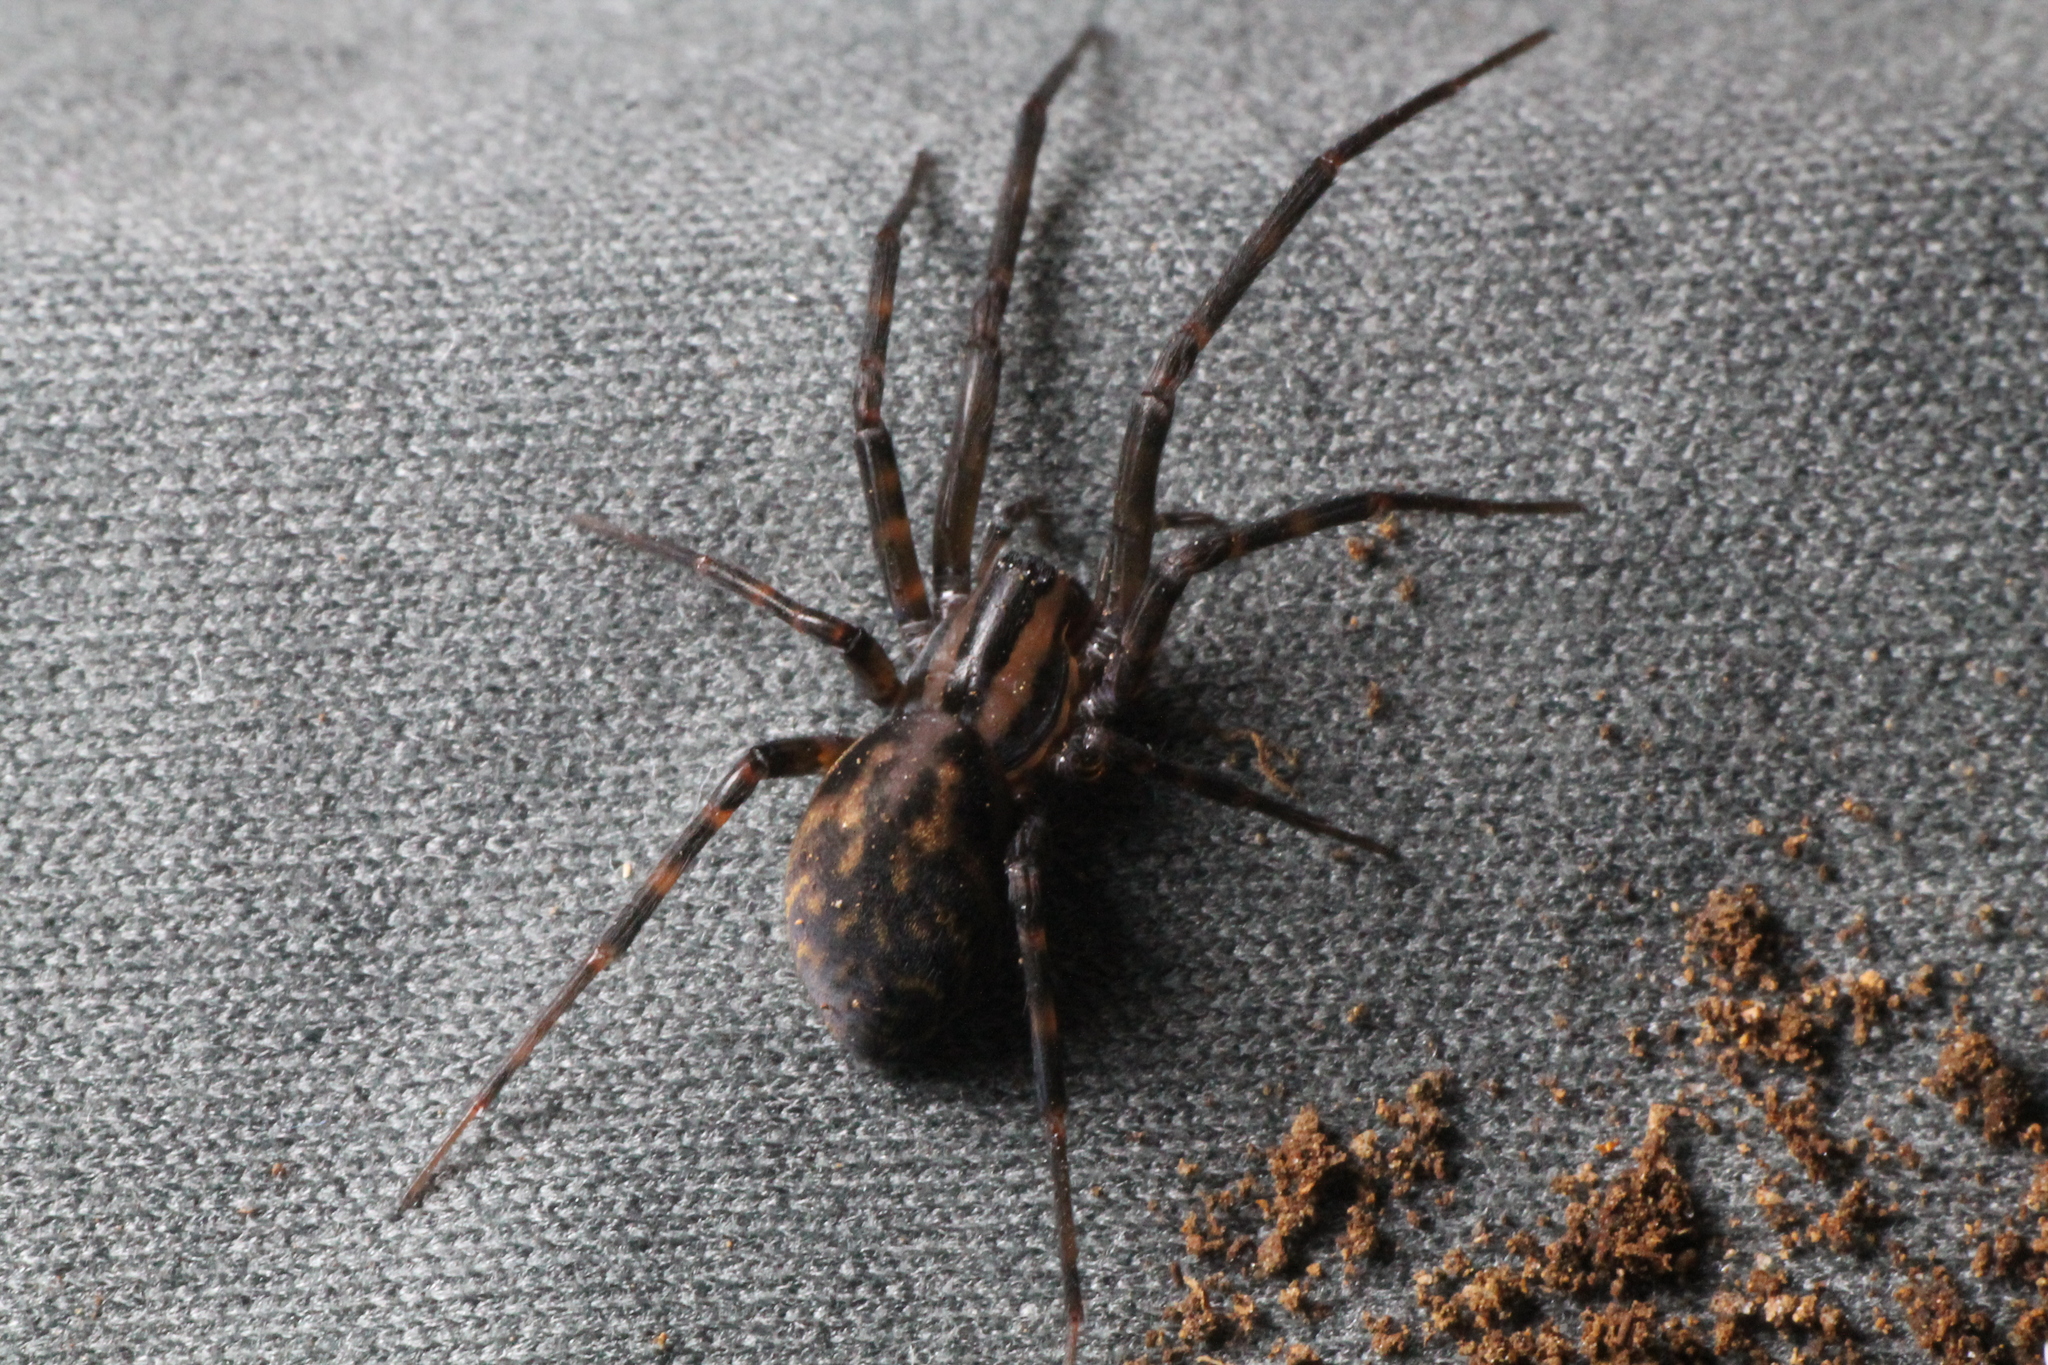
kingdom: Animalia
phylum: Arthropoda
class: Arachnida
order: Araneae
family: Desidae
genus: Cambridgea
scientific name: Cambridgea plagiata
